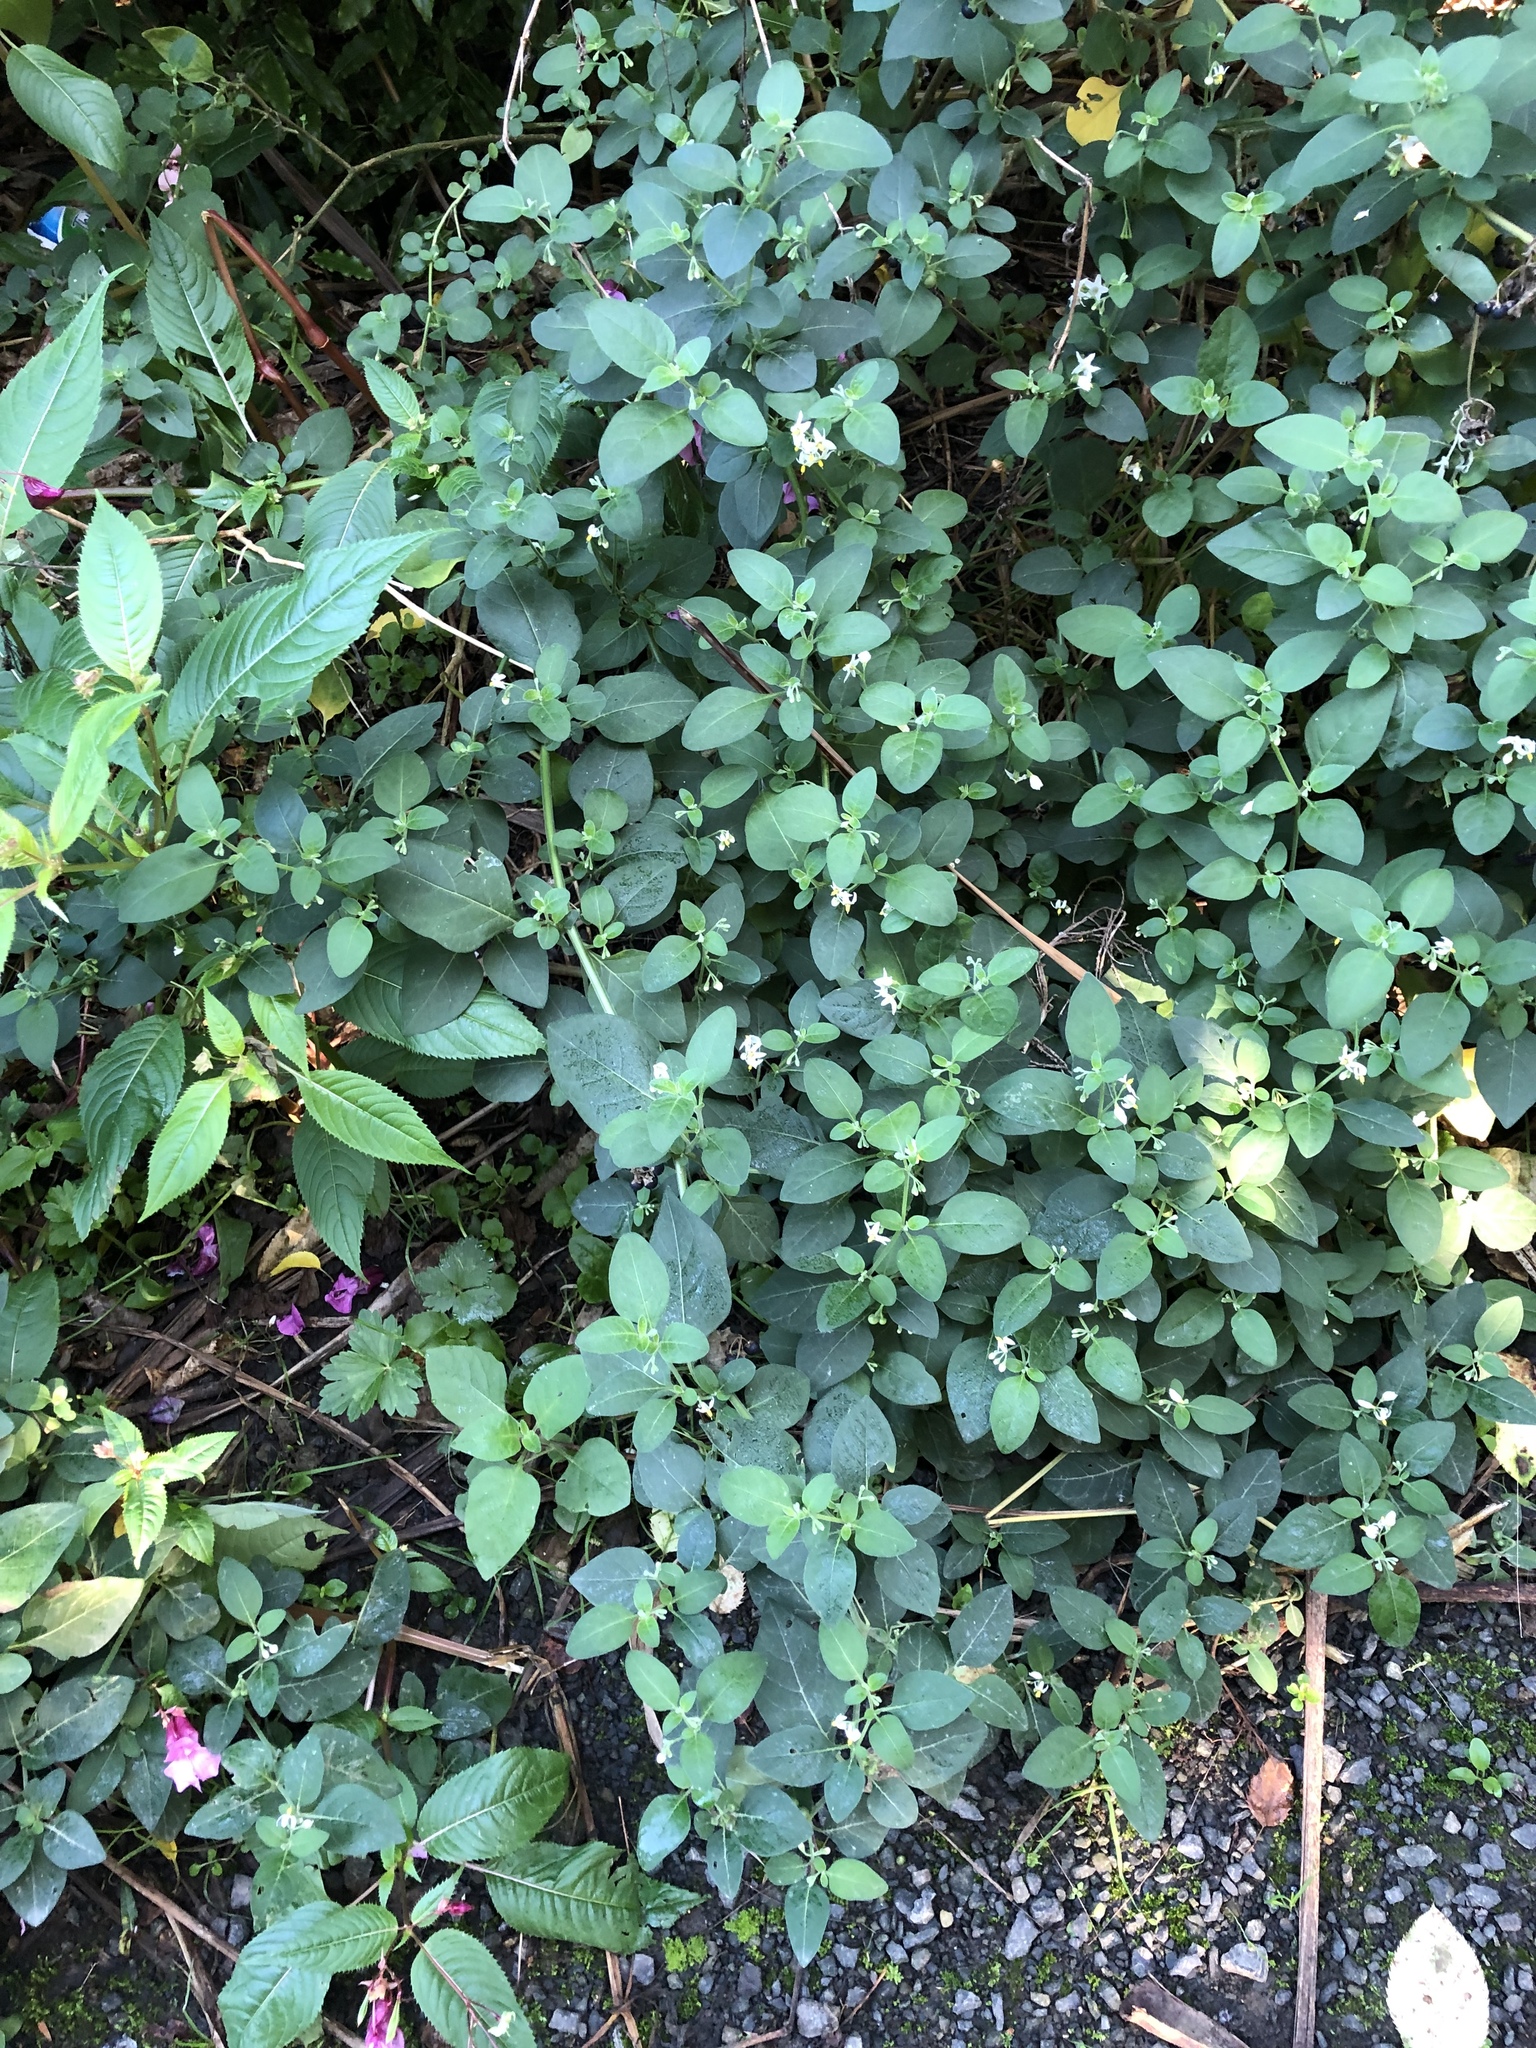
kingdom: Plantae
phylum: Tracheophyta
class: Magnoliopsida
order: Solanales
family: Solanaceae
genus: Solanum
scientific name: Solanum chenopodioides
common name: Tall nightshade
